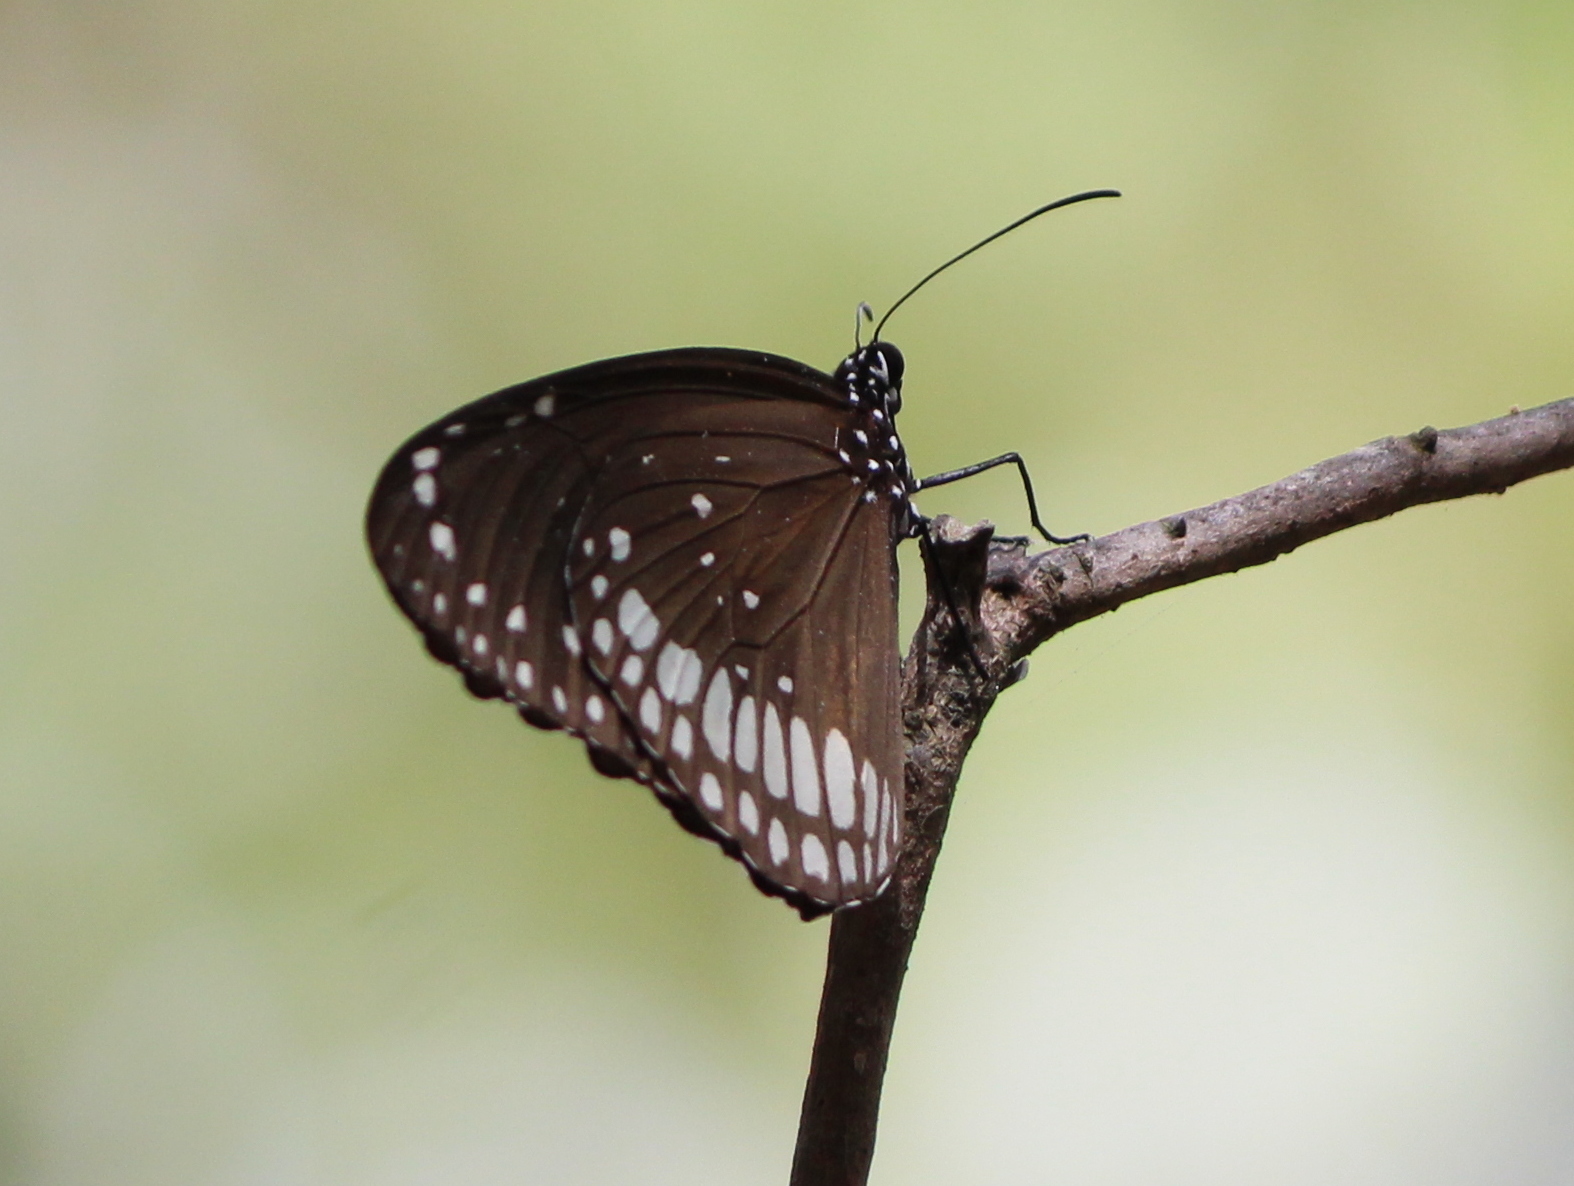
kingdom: Animalia
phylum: Arthropoda
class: Insecta
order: Lepidoptera
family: Nymphalidae
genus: Euploea
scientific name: Euploea core
